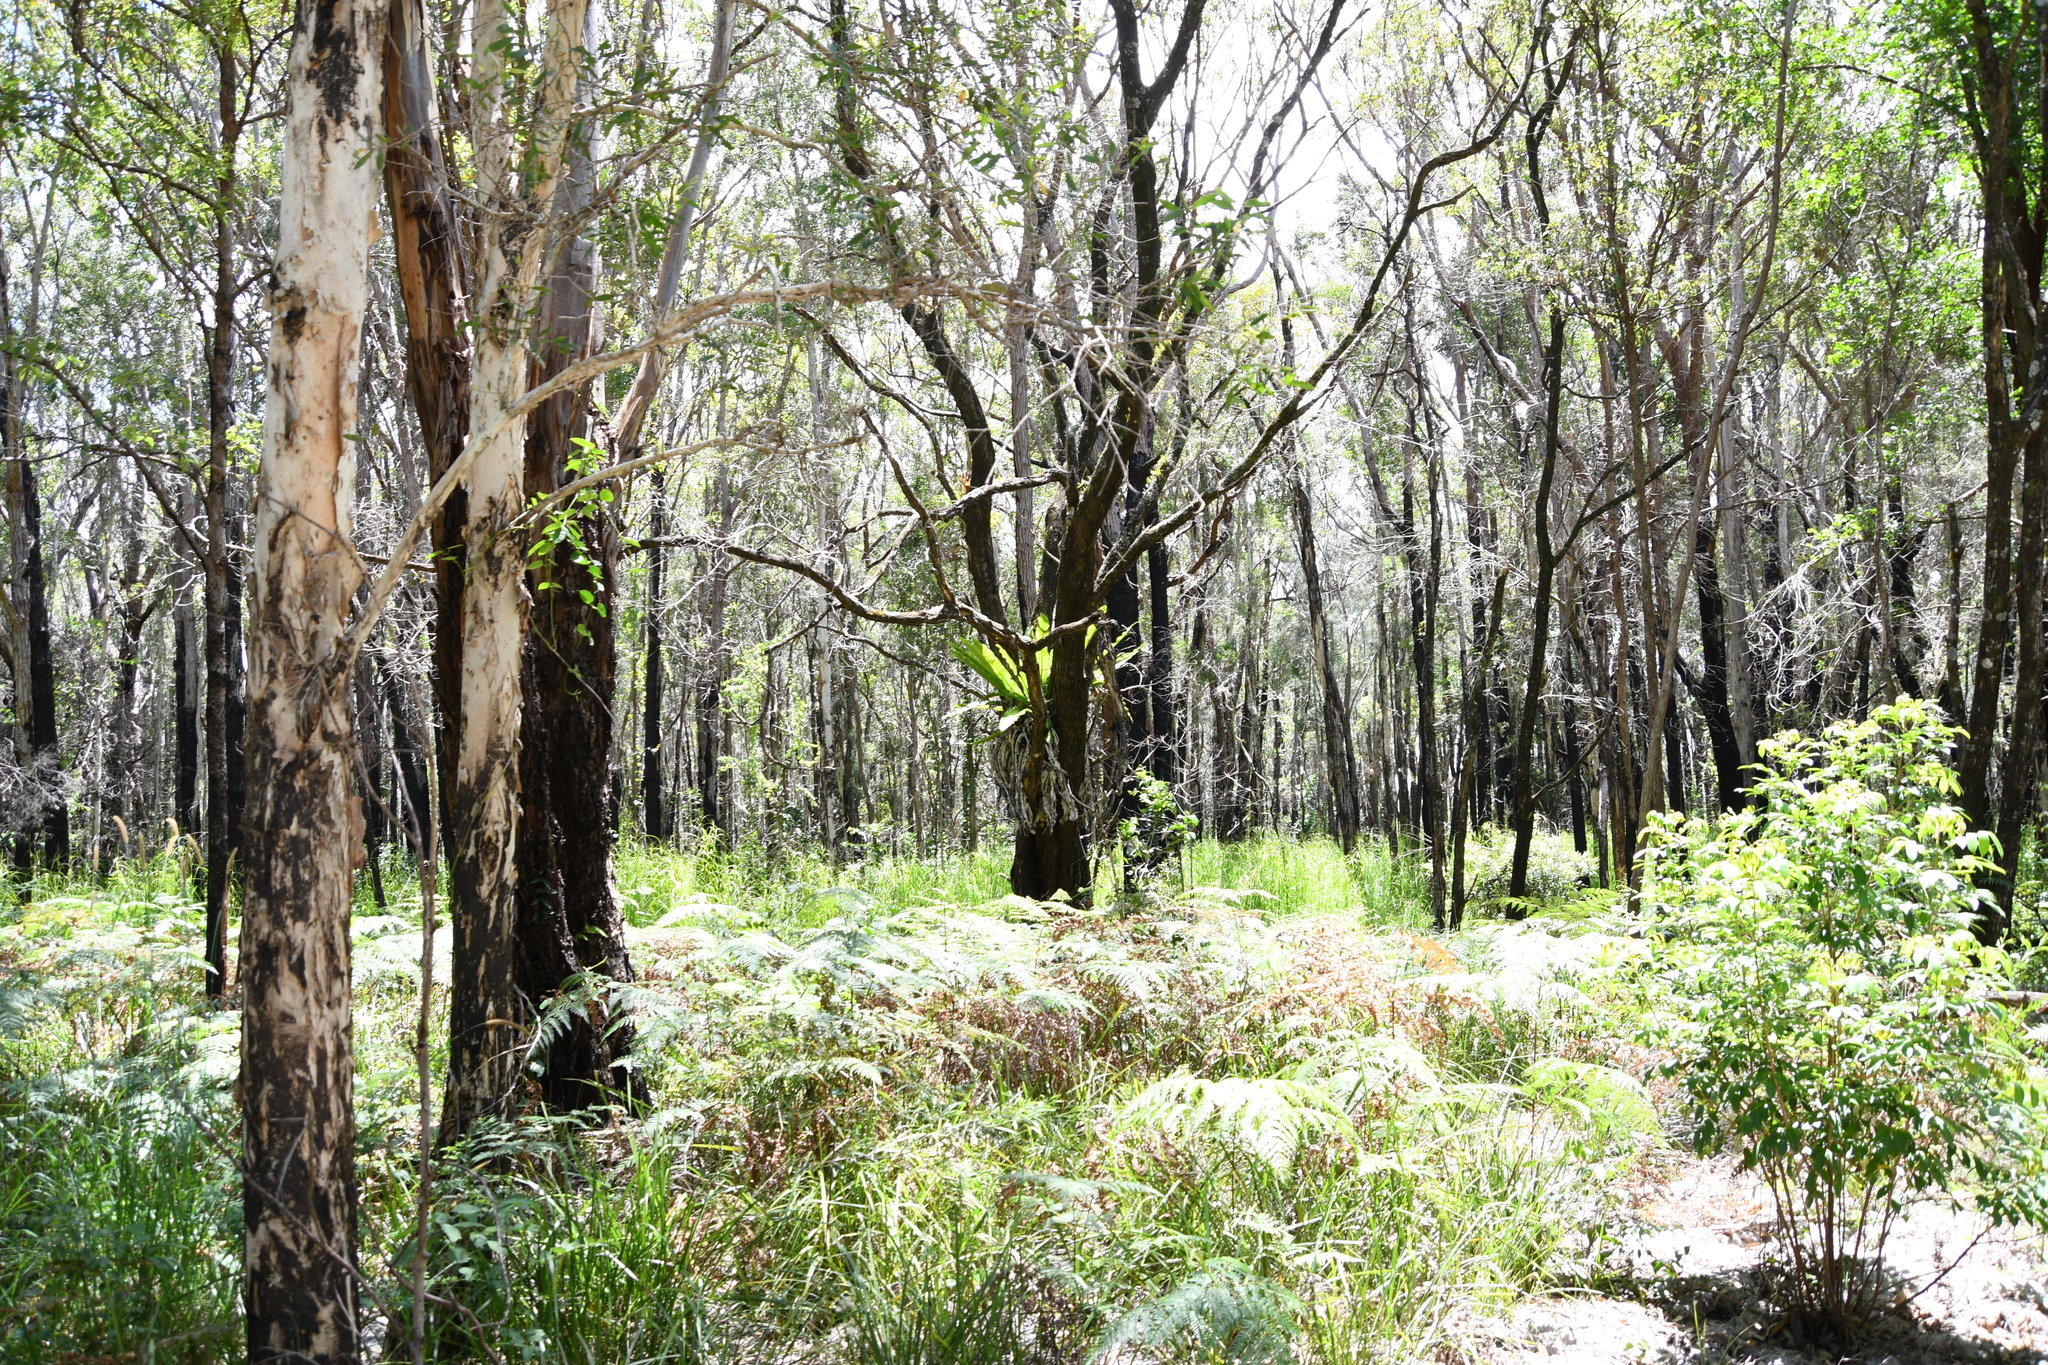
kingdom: Plantae
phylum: Tracheophyta
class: Polypodiopsida
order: Polypodiales
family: Aspleniaceae
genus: Asplenium
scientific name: Asplenium australasicum
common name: Bird's-nest fern
